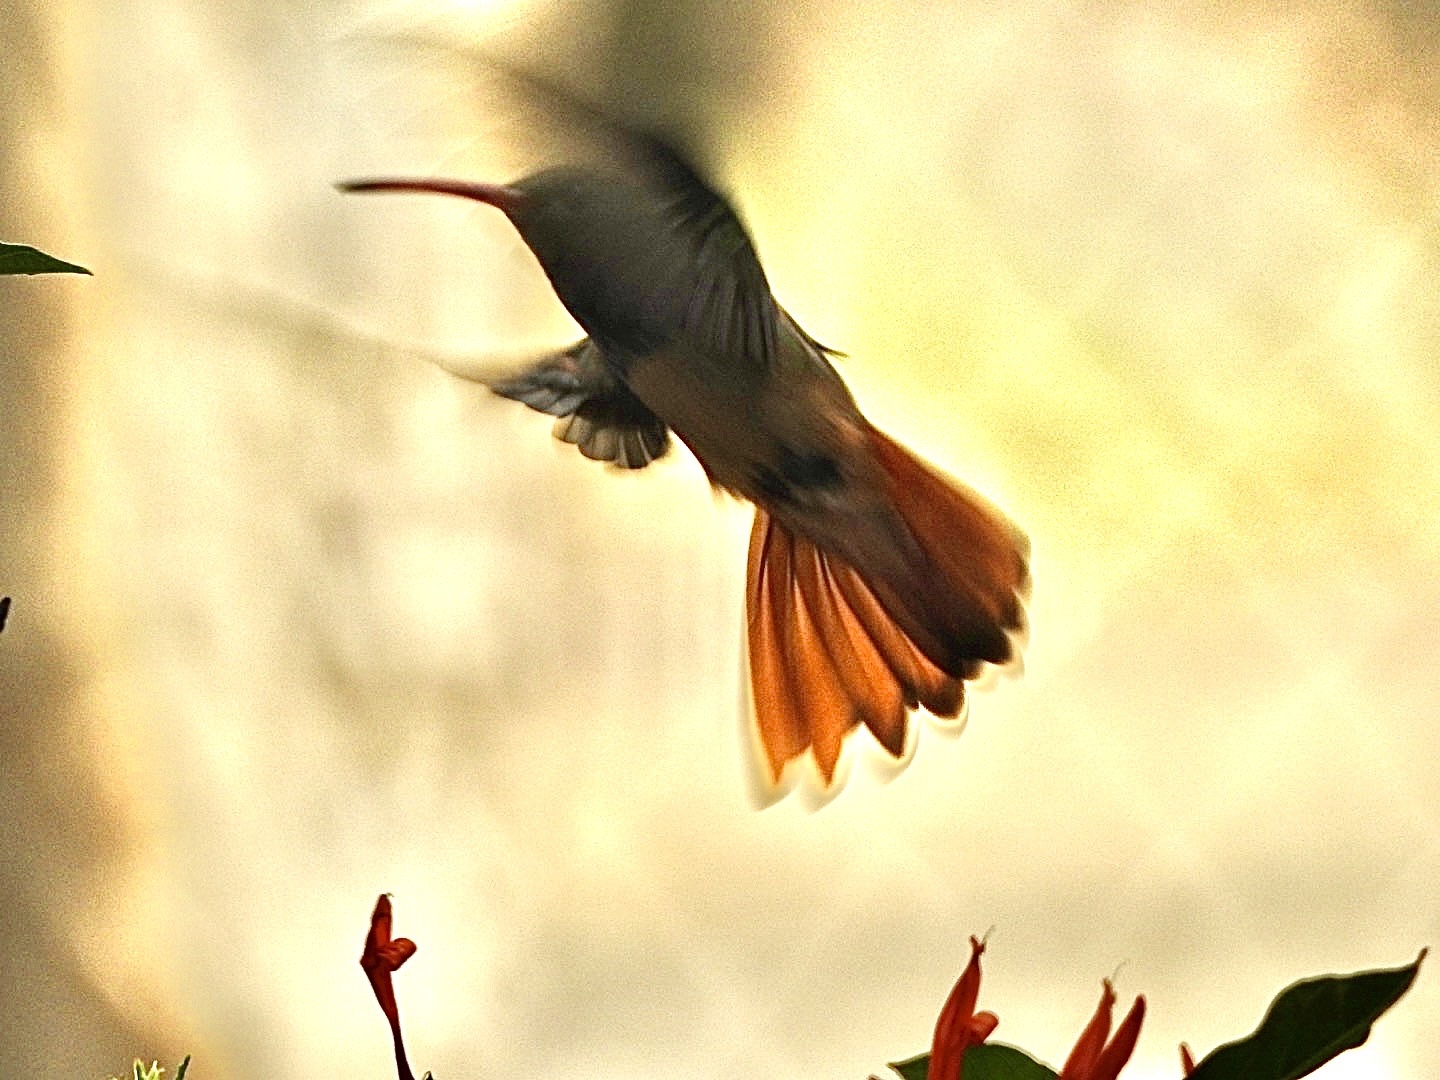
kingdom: Animalia
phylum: Chordata
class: Aves
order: Apodiformes
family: Trochilidae
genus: Amazilia
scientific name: Amazilia yucatanensis
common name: Buff-bellied hummingbird
